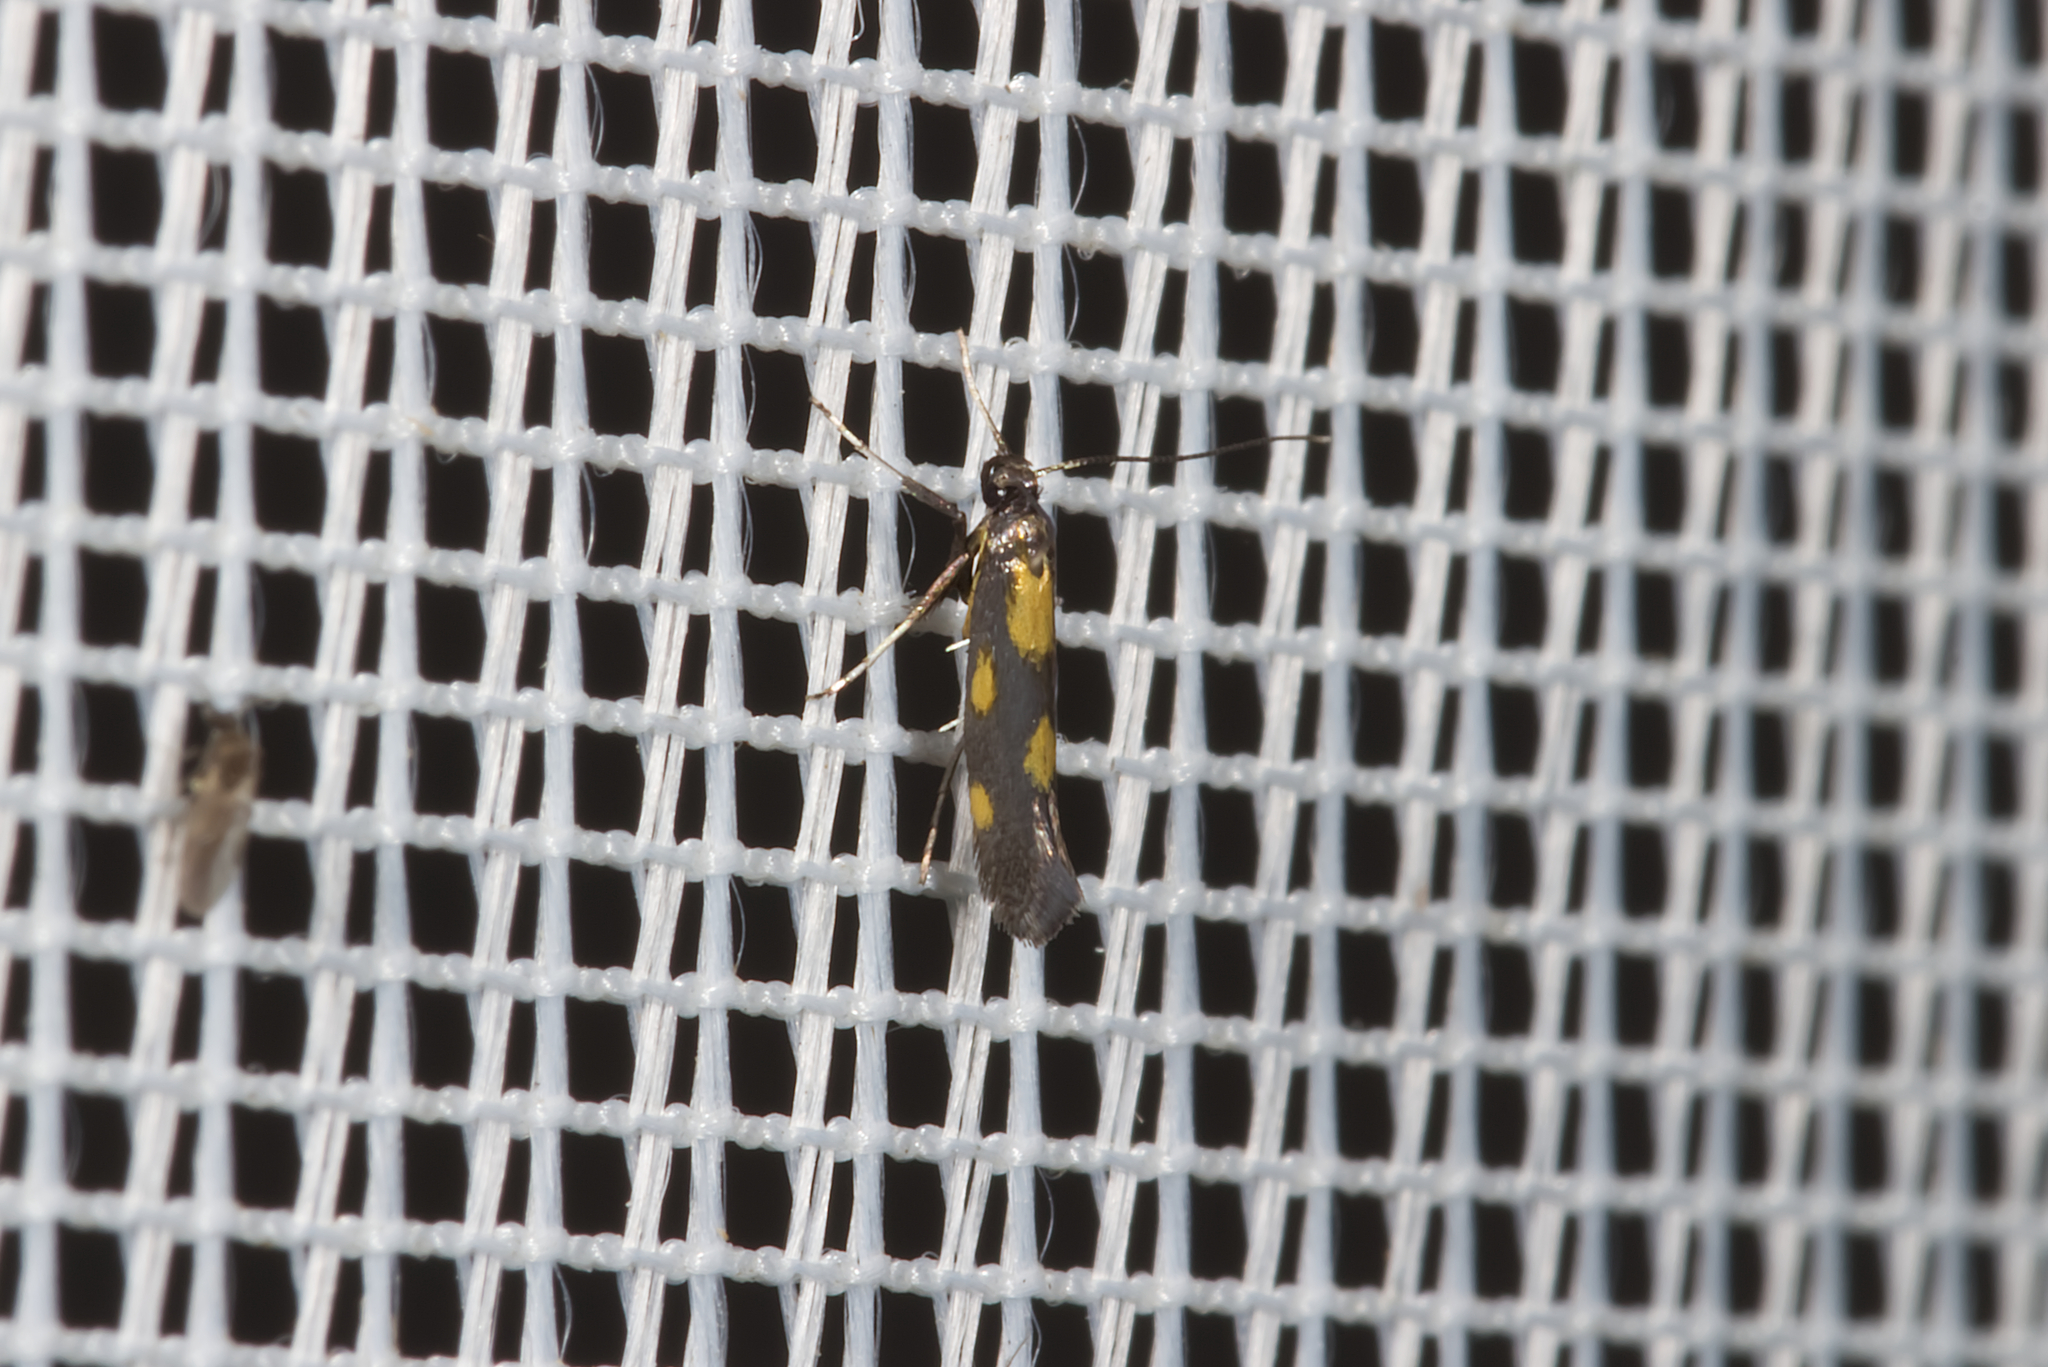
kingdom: Animalia
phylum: Arthropoda
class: Insecta
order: Lepidoptera
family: Gracillariidae
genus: Euspilapteryx
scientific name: Euspilapteryx auroguttella
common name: Gold-dot slender
